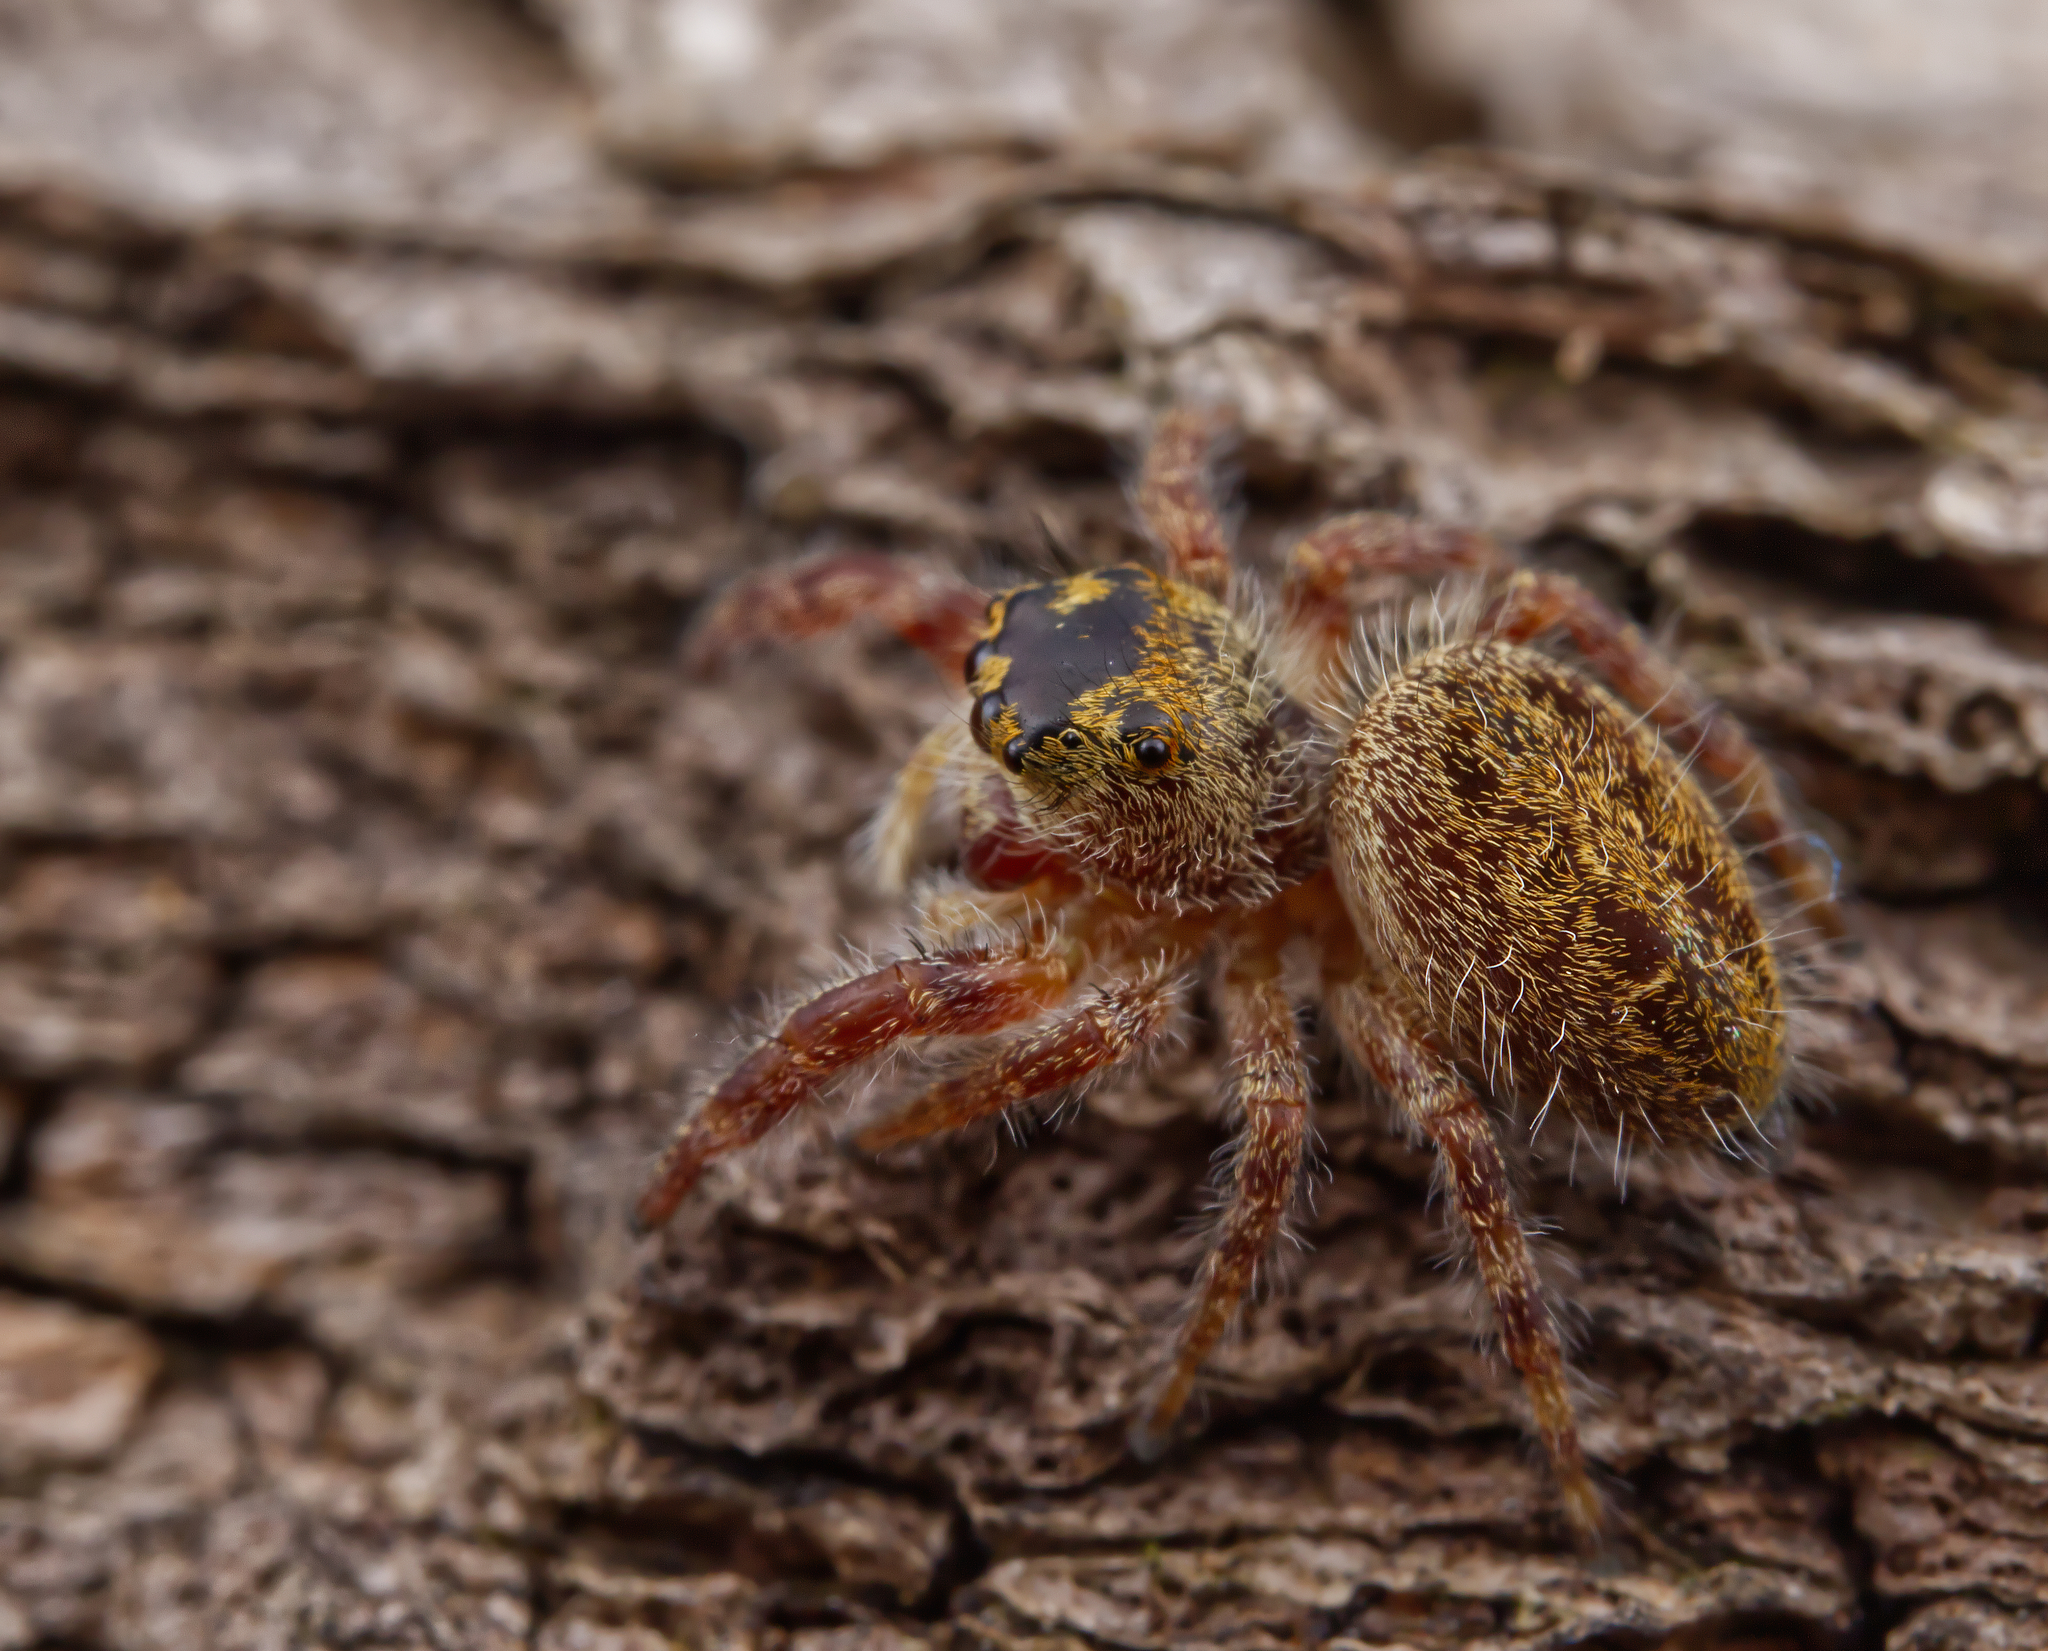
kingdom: Animalia
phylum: Arthropoda
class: Arachnida
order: Araneae
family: Salticidae
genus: Phidippus
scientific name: Phidippus princeps
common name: Grayish jumping spider
